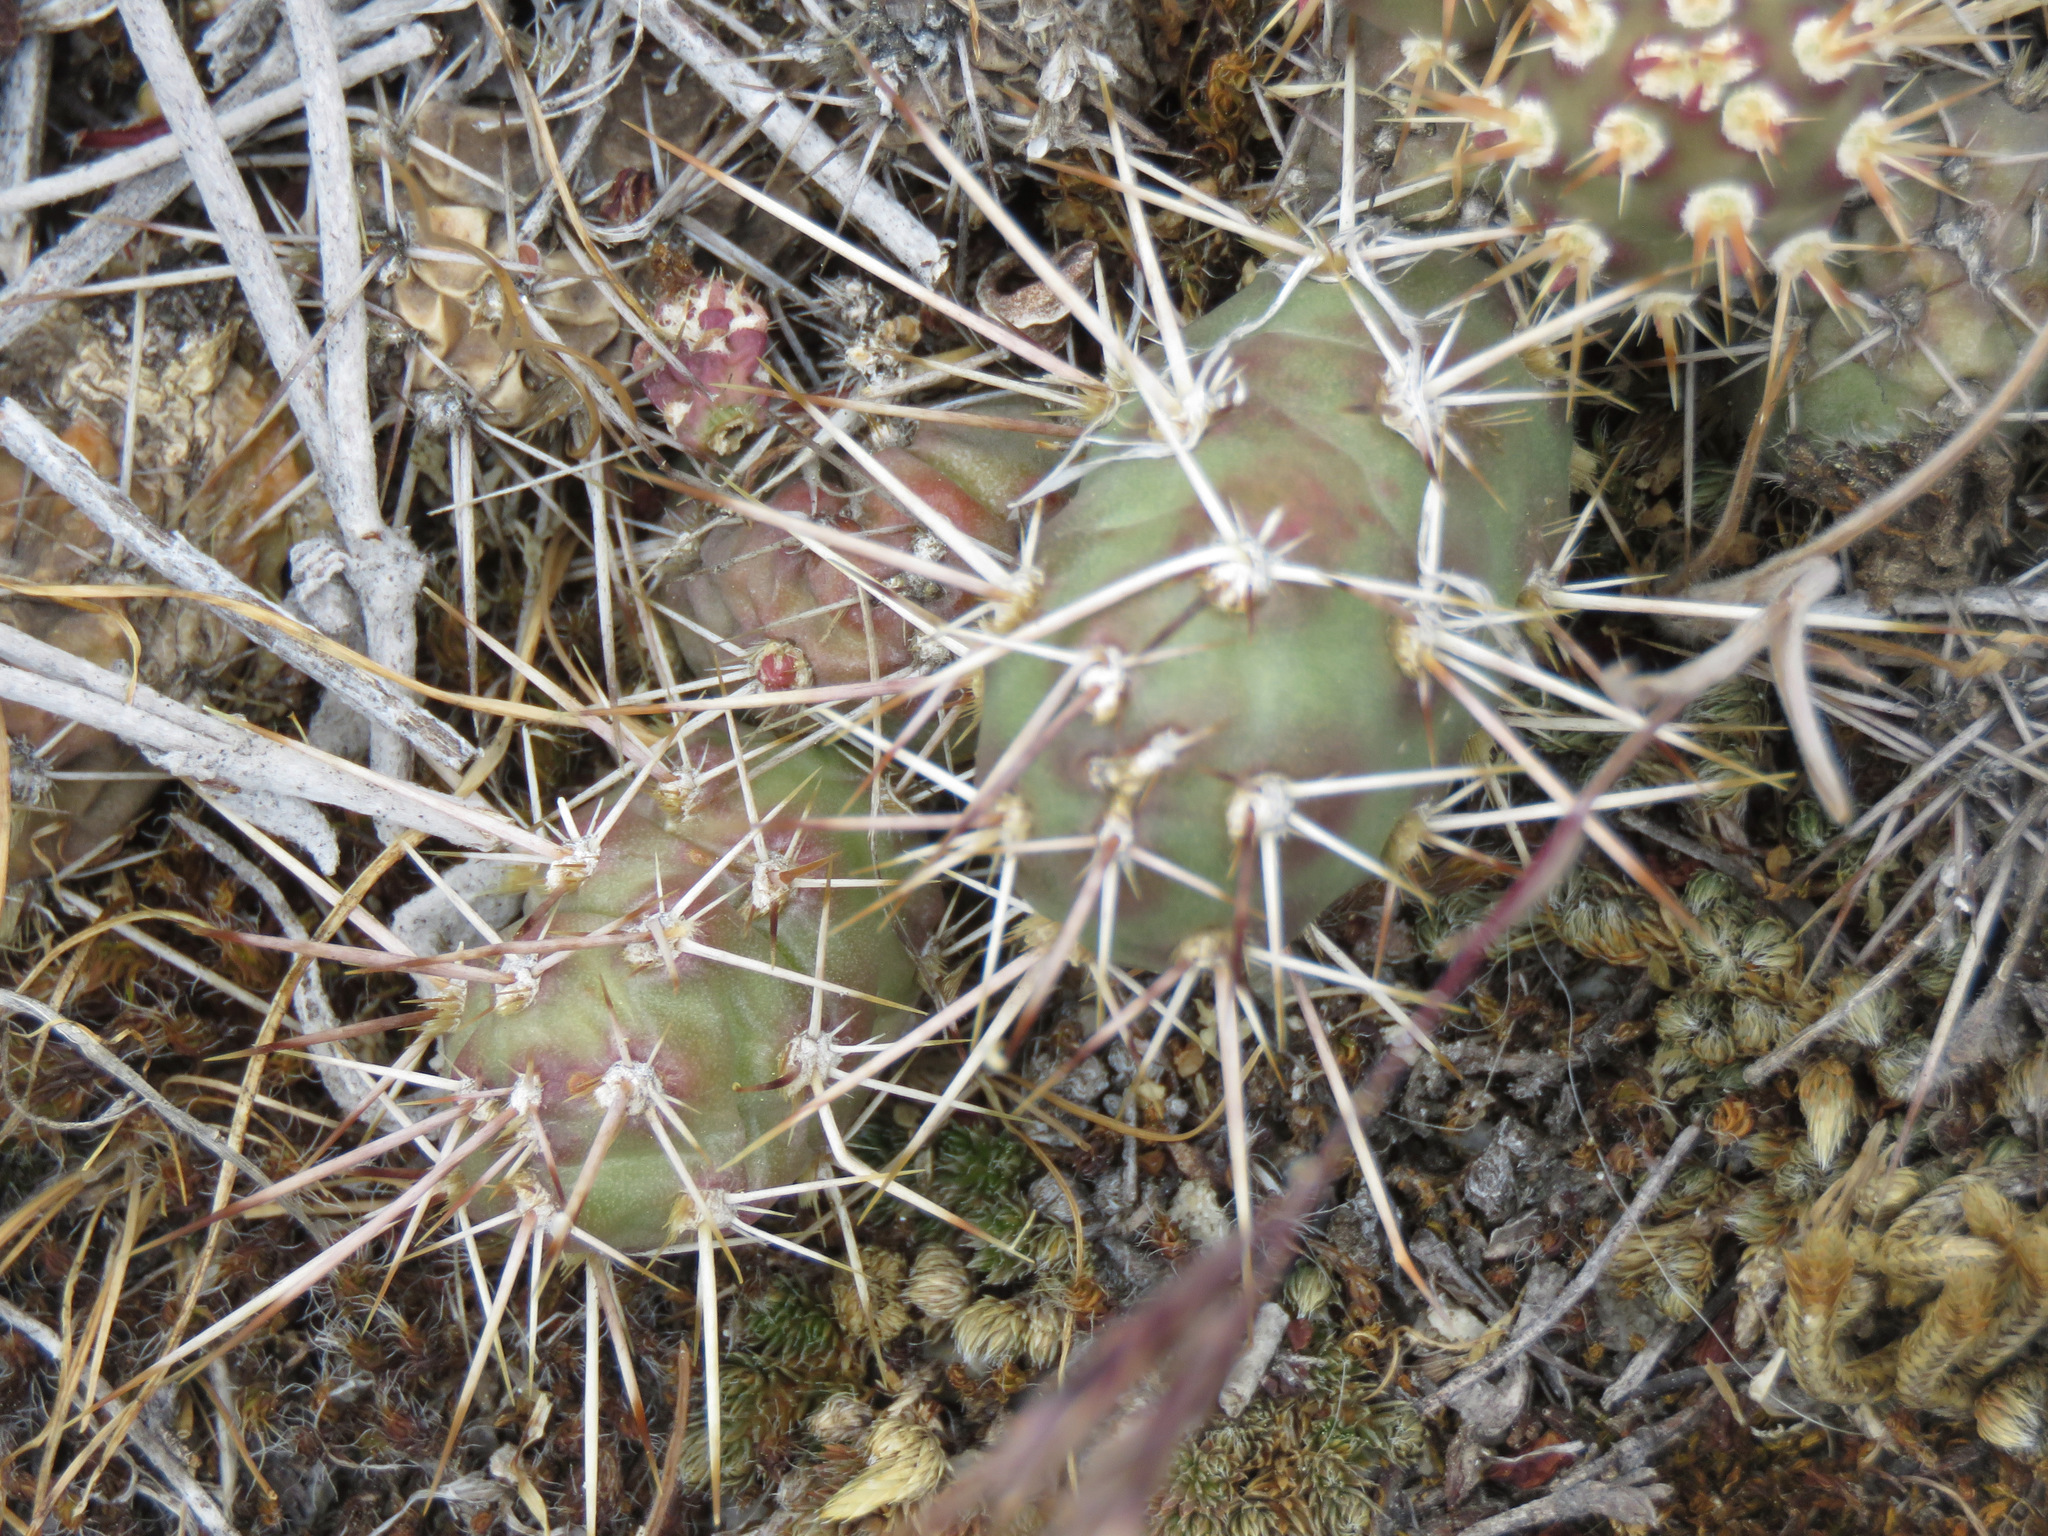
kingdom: Plantae
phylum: Tracheophyta
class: Magnoliopsida
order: Caryophyllales
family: Cactaceae
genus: Opuntia
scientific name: Opuntia fragilis
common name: Brittle cactus
